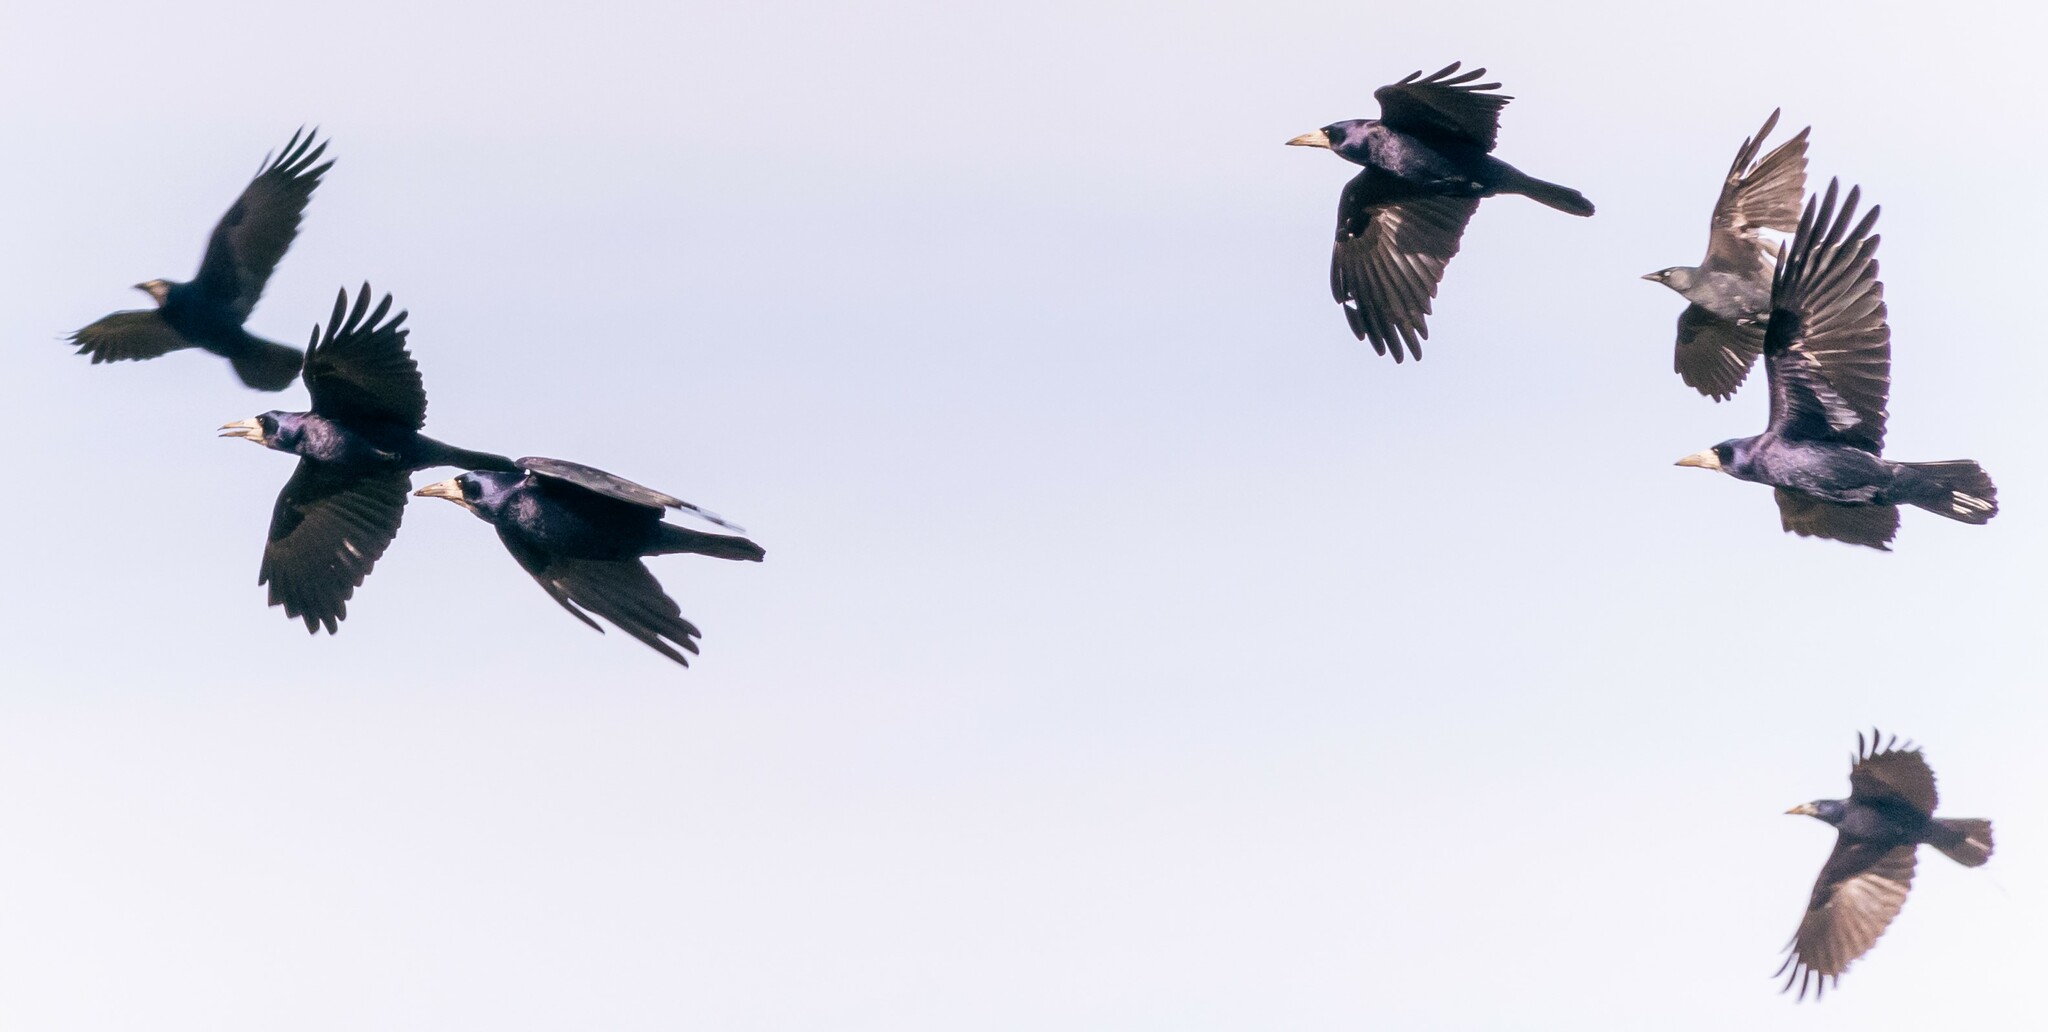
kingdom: Animalia
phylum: Chordata
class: Aves
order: Passeriformes
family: Corvidae
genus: Corvus
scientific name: Corvus frugilegus
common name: Rook
